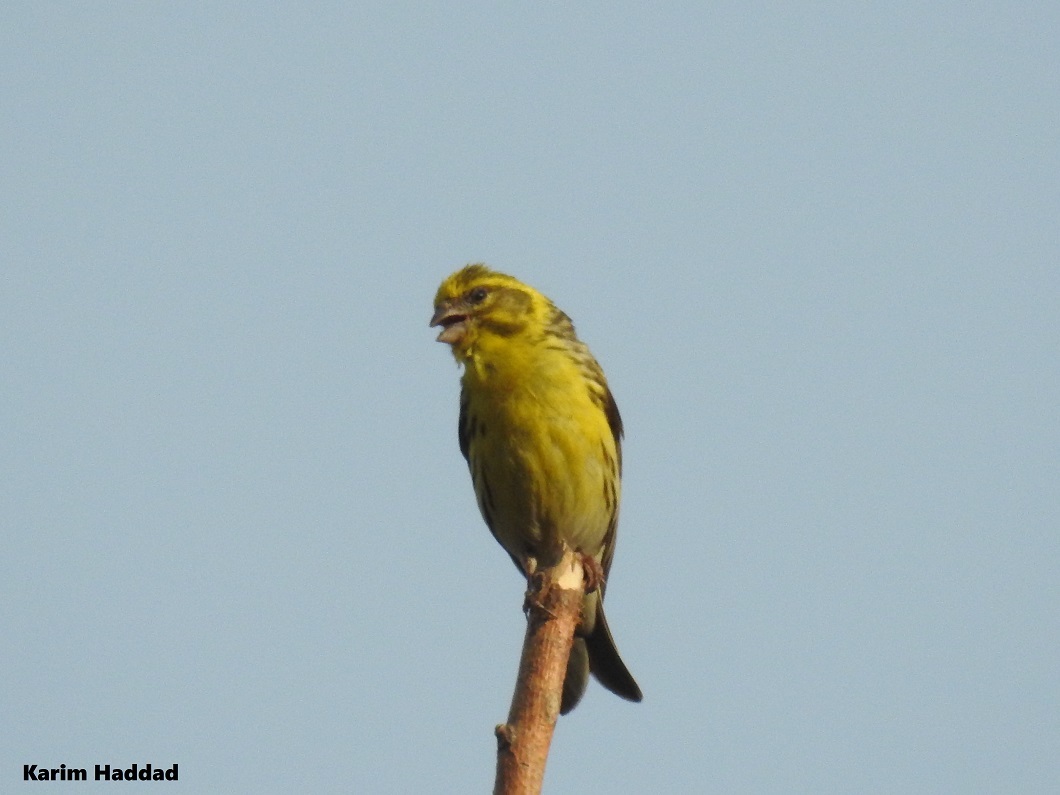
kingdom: Animalia
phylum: Chordata
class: Aves
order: Passeriformes
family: Fringillidae
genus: Serinus
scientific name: Serinus serinus
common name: European serin
